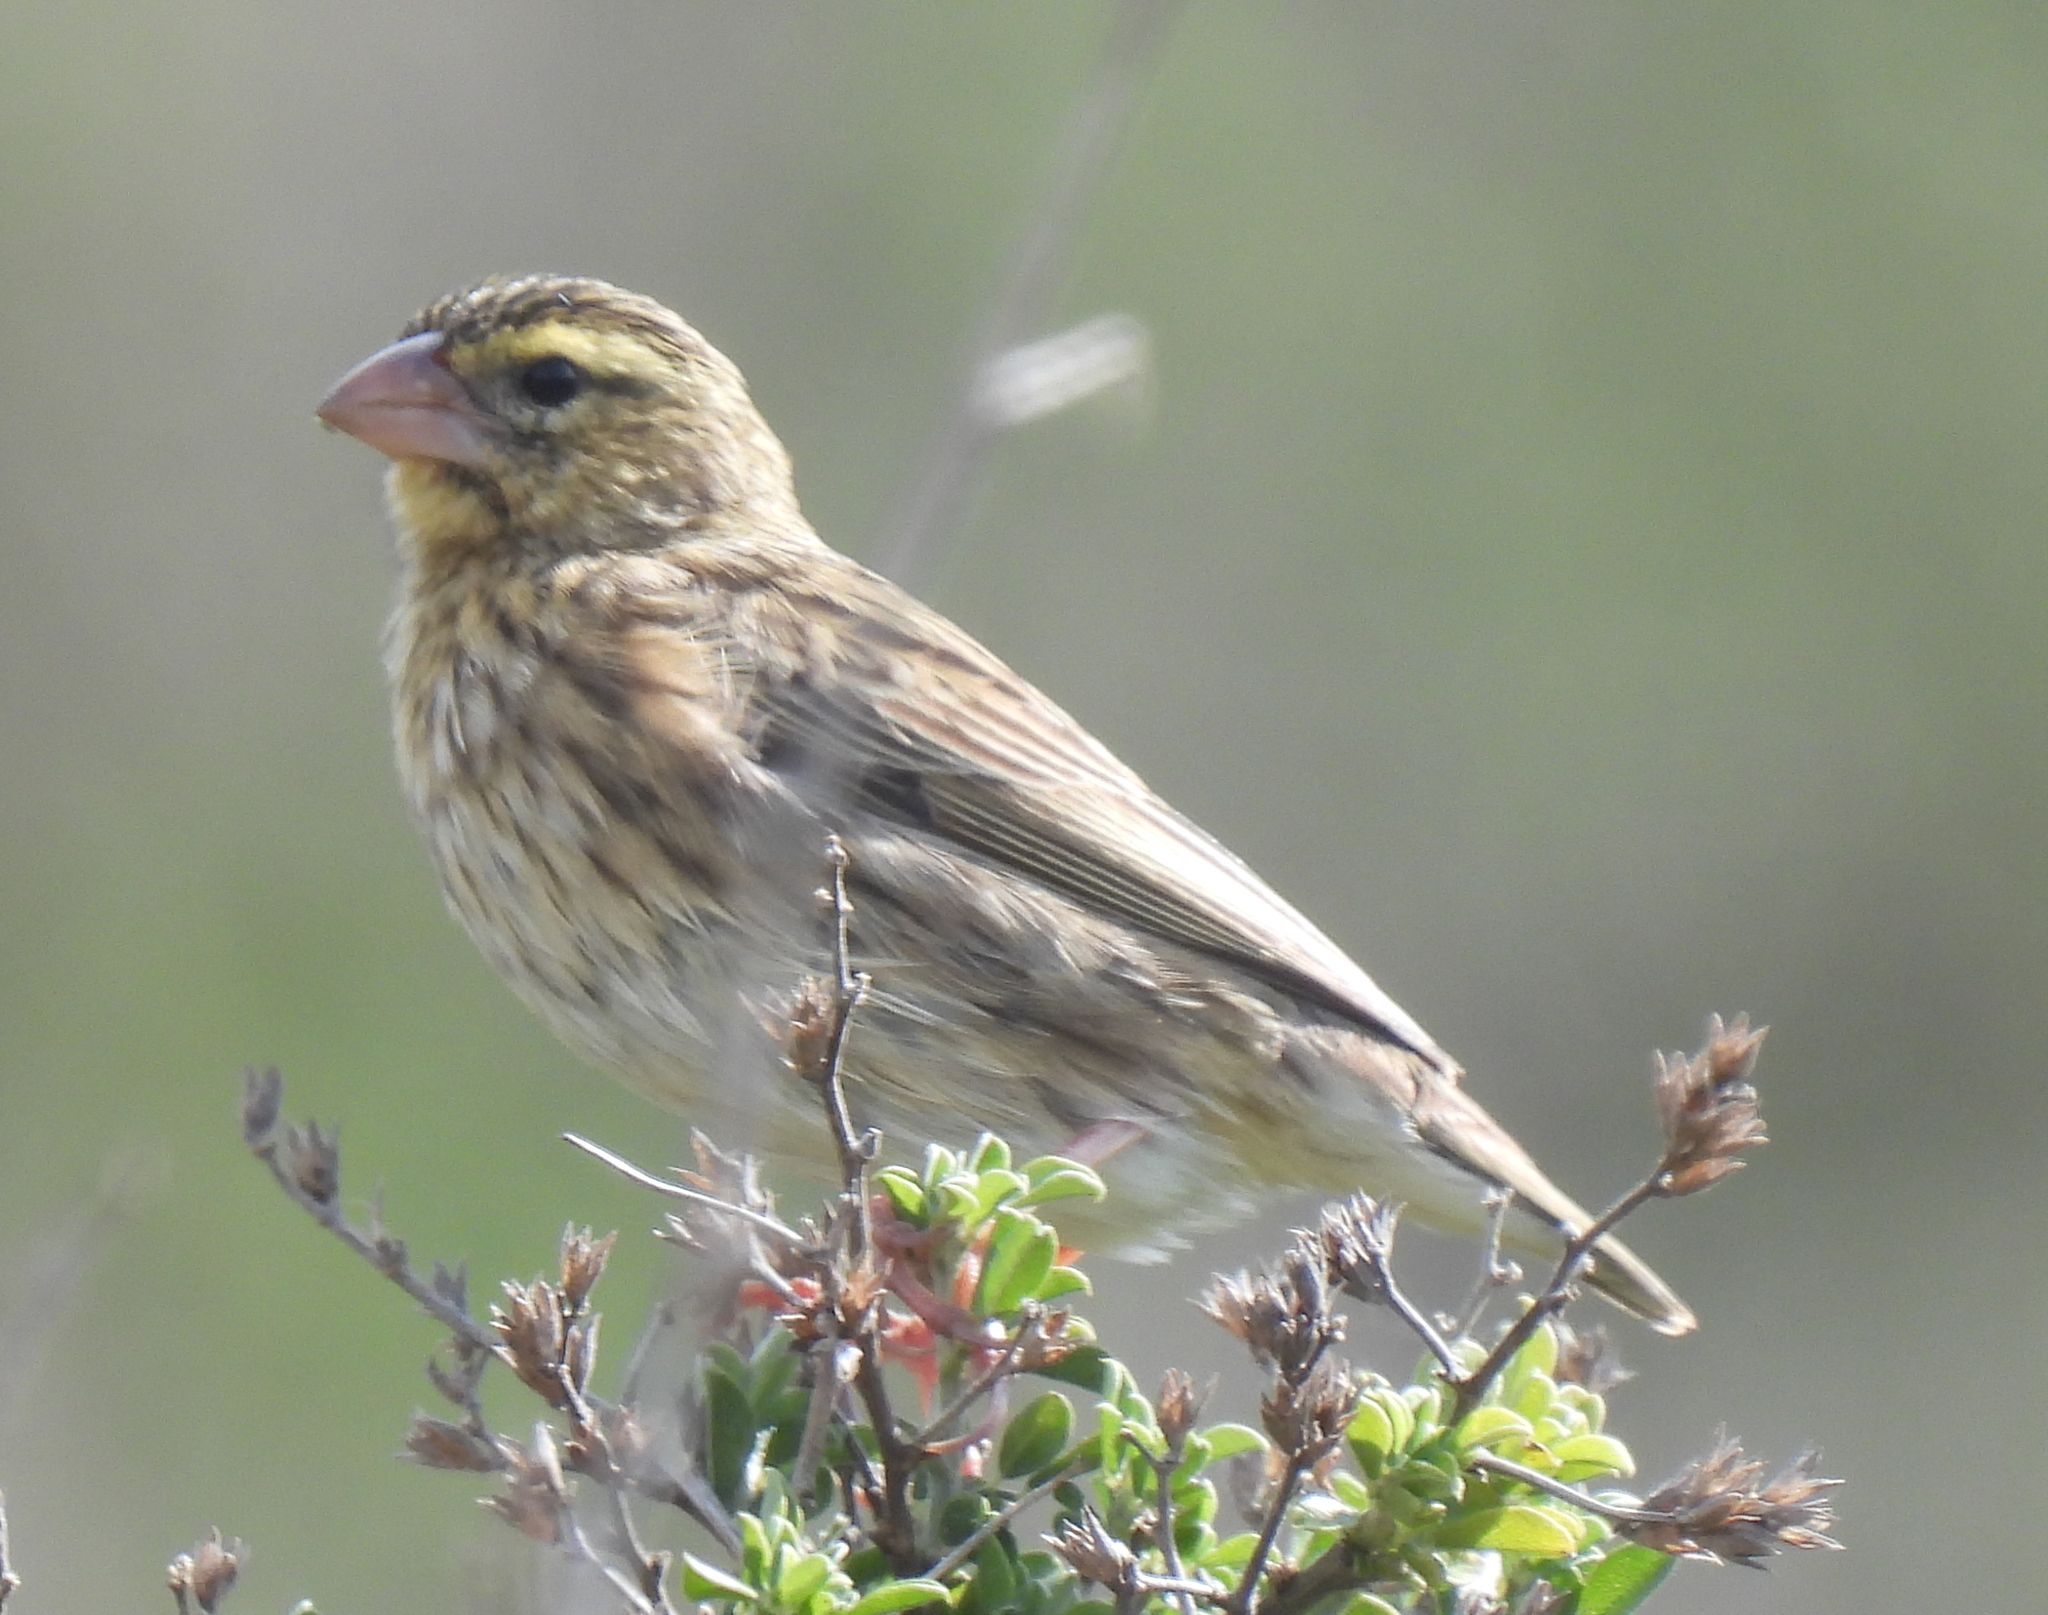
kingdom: Animalia
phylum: Chordata
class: Aves
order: Passeriformes
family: Ploceidae
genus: Euplectes
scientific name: Euplectes orix
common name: Southern red bishop
